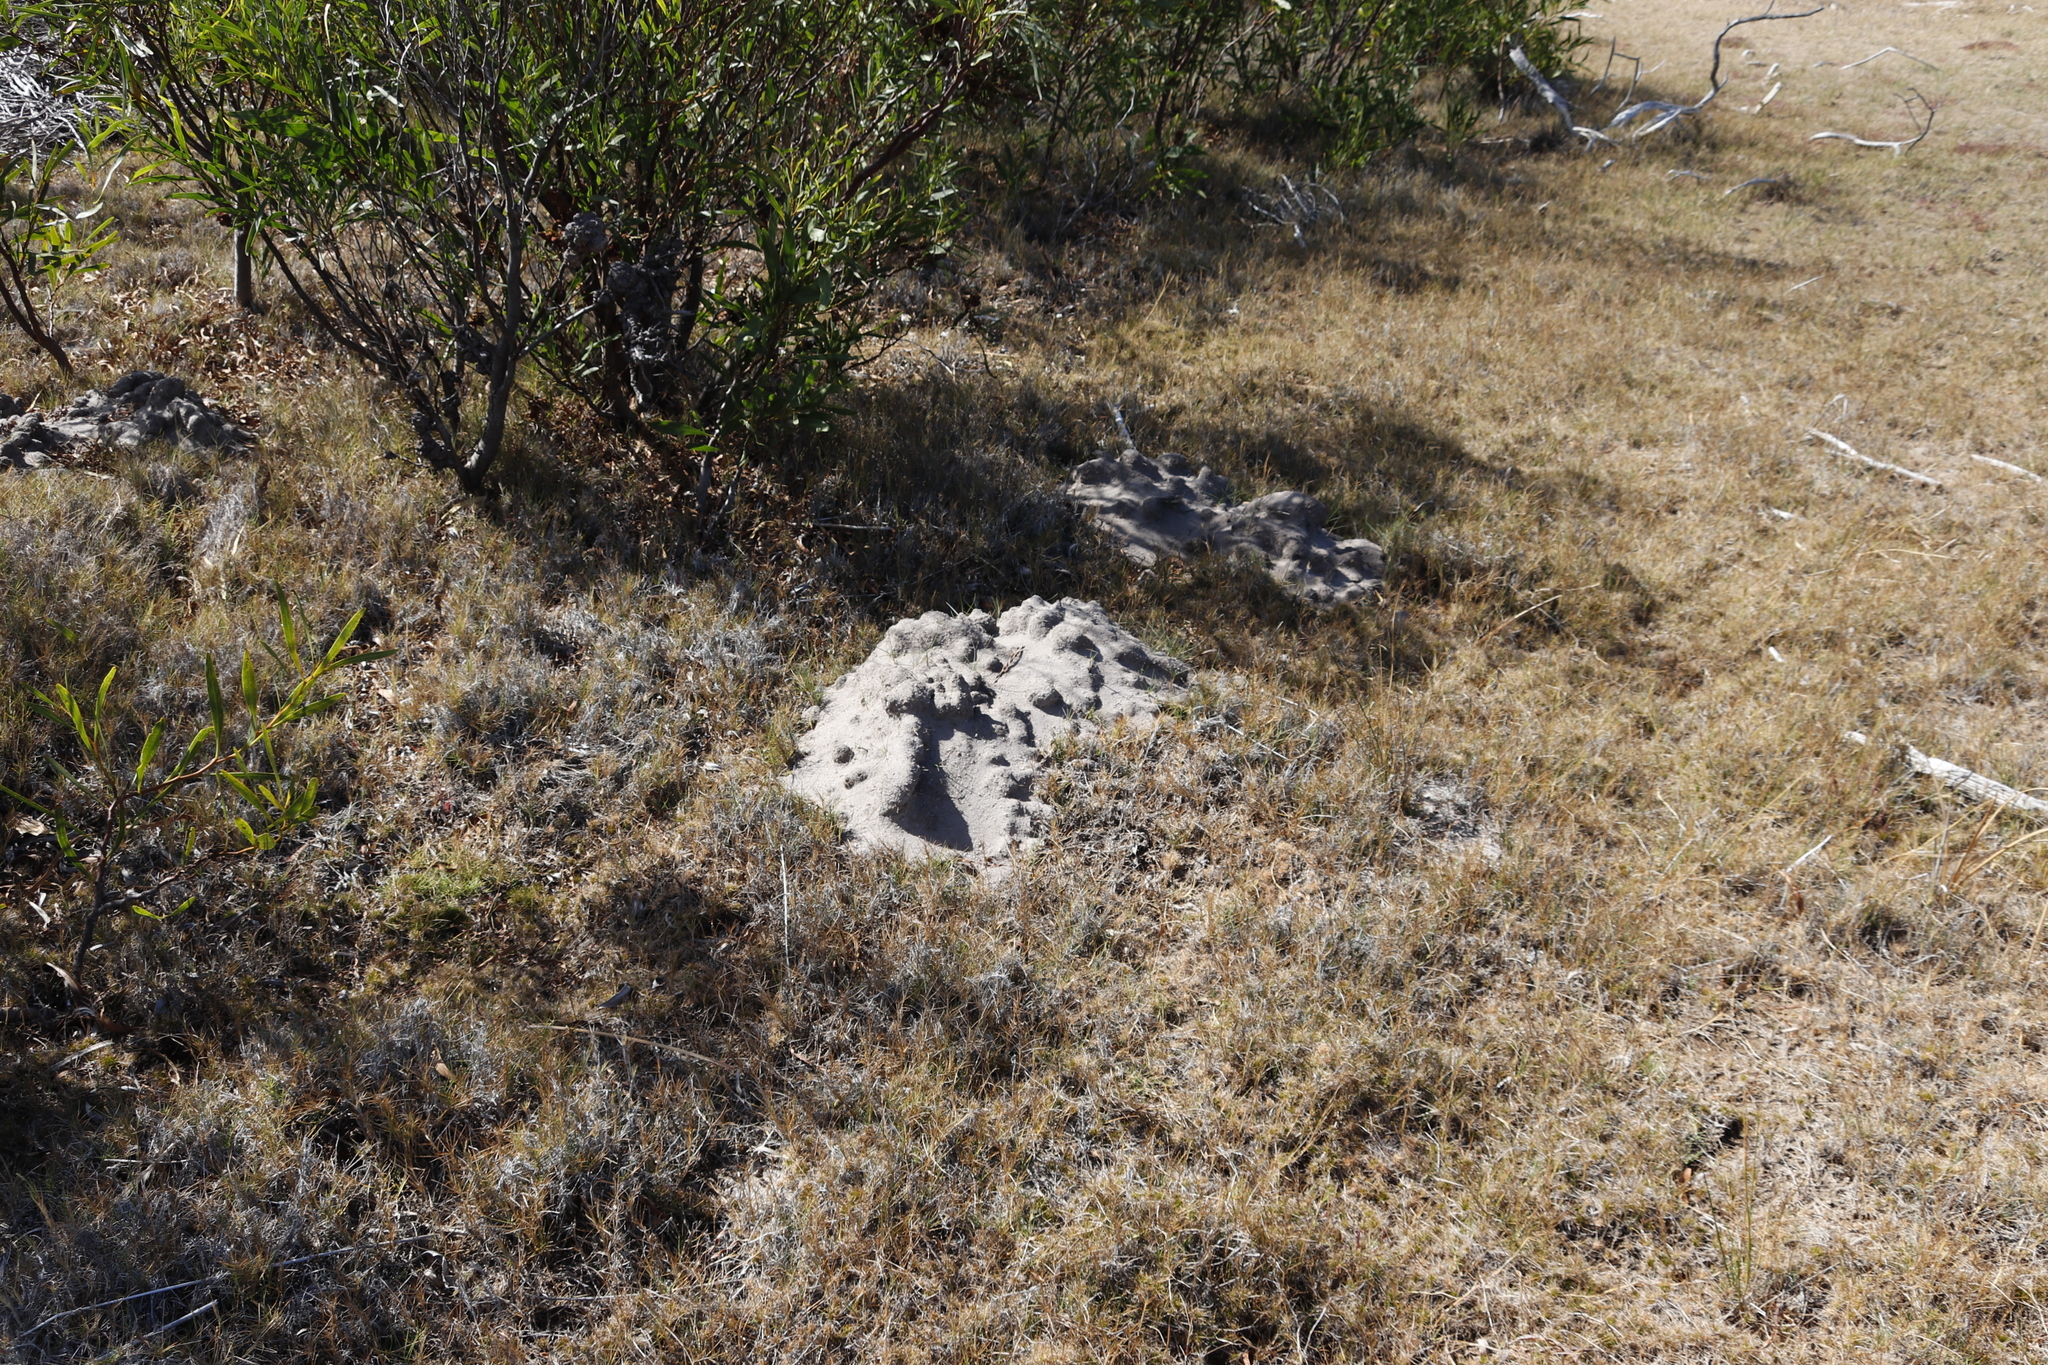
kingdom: Animalia
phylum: Chordata
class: Mammalia
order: Rodentia
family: Bathyergidae
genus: Bathyergus
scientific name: Bathyergus suillus
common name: Cape dune mole rat
